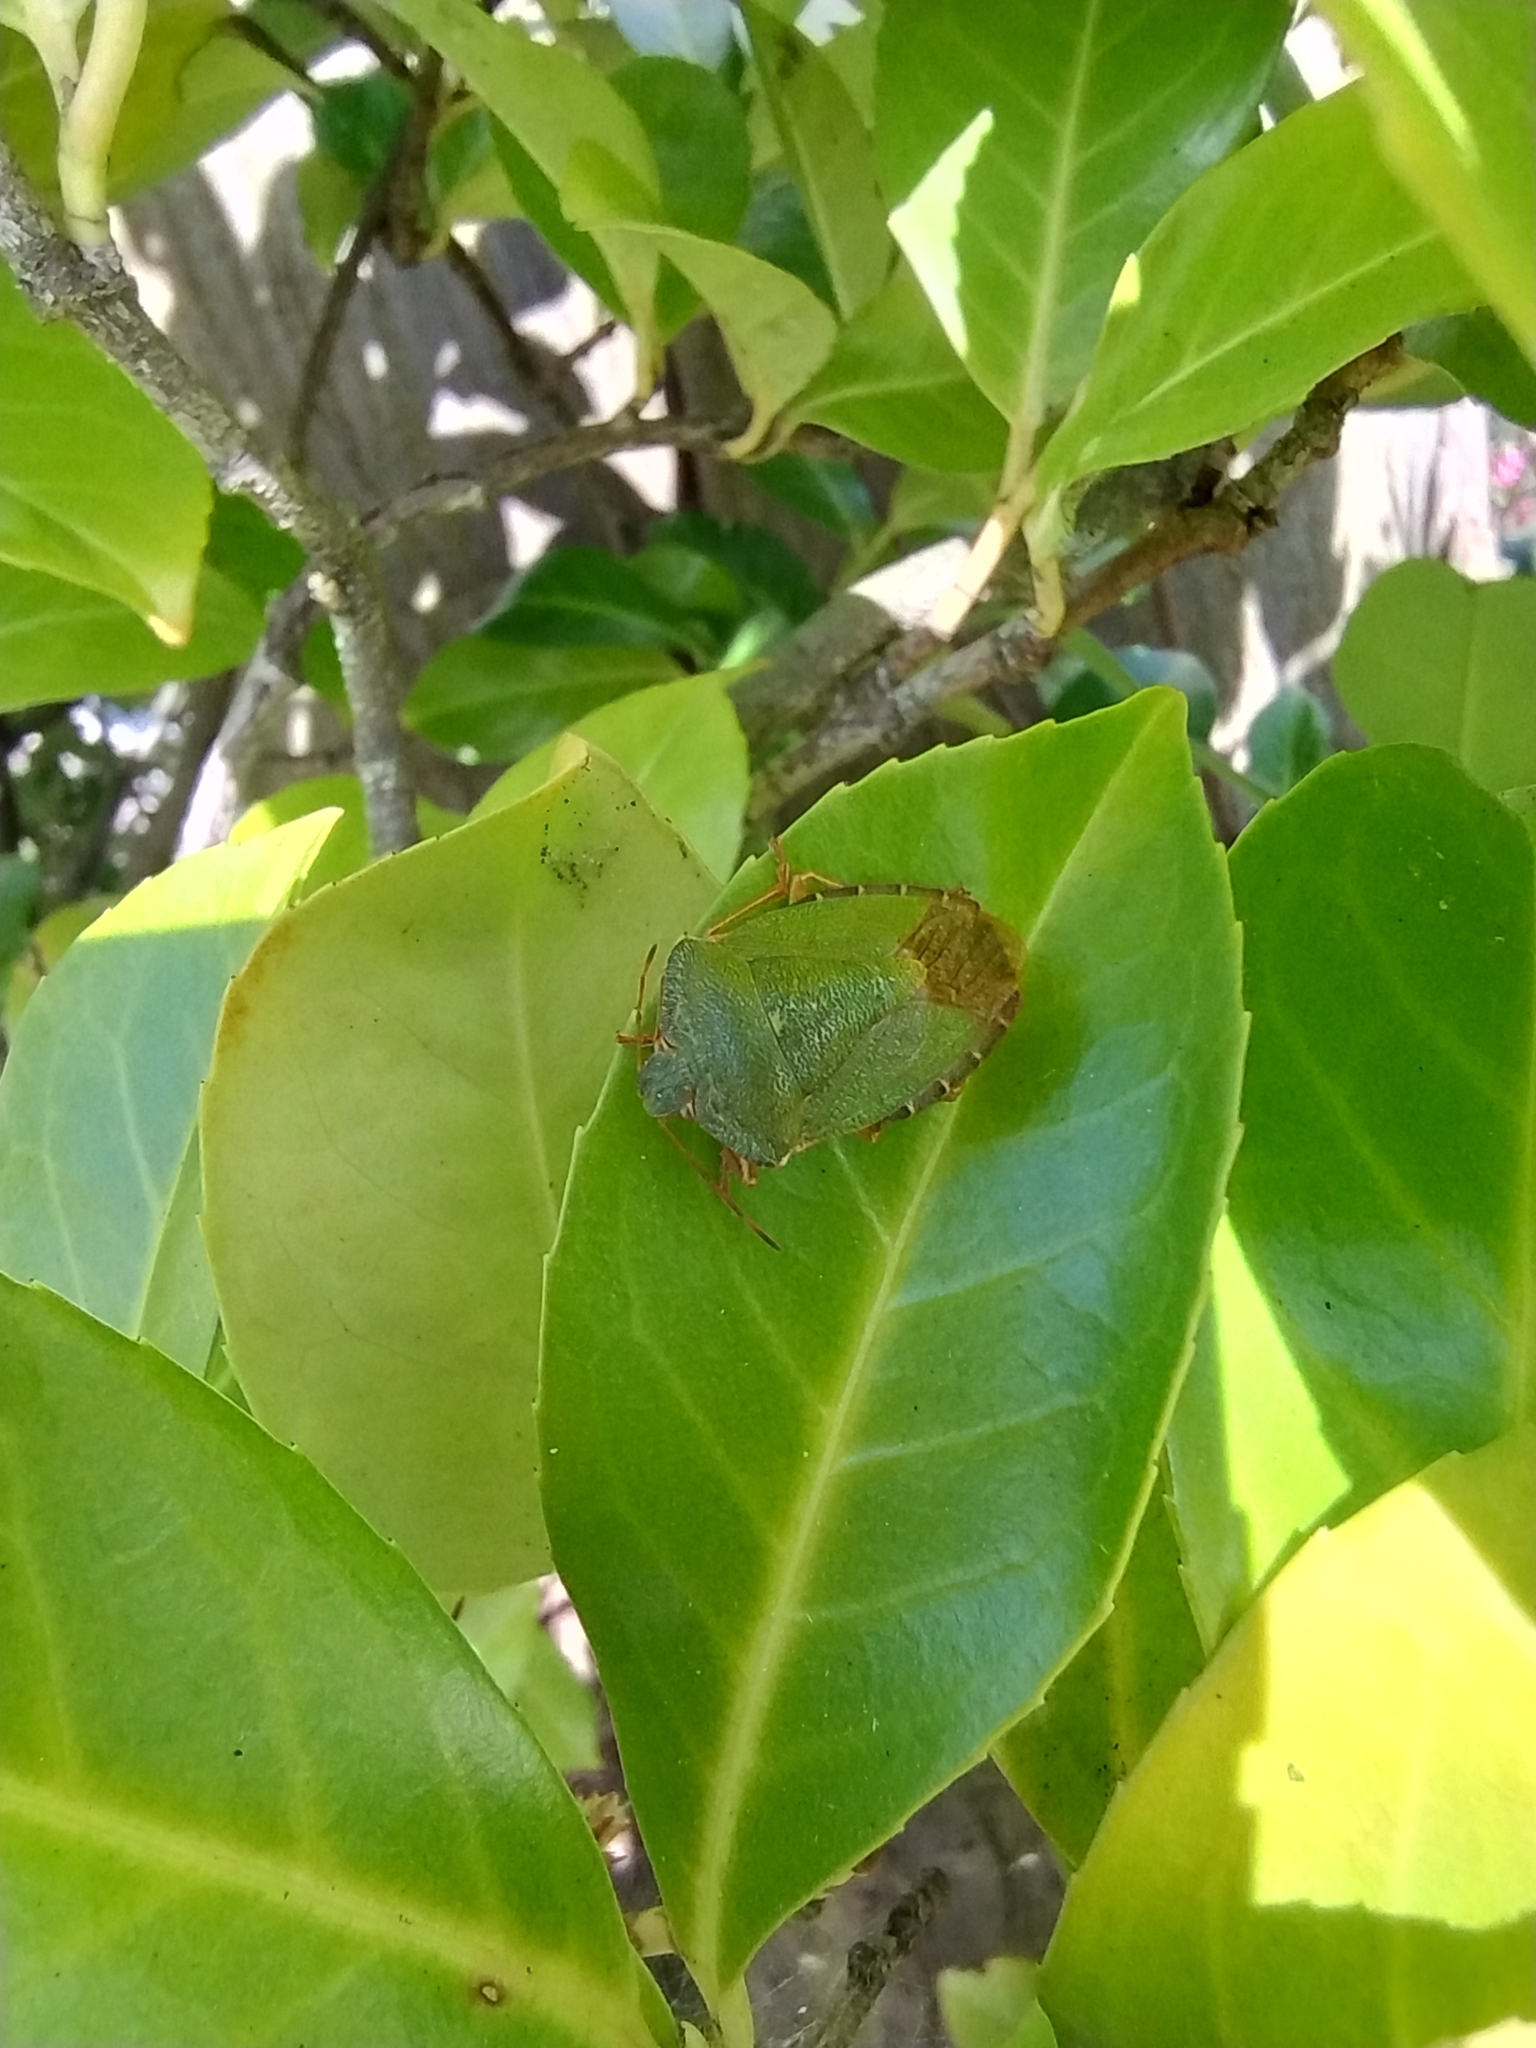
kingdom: Animalia
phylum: Arthropoda
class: Insecta
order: Hemiptera
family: Pentatomidae
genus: Palomena
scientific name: Palomena prasina
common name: Green shieldbug
